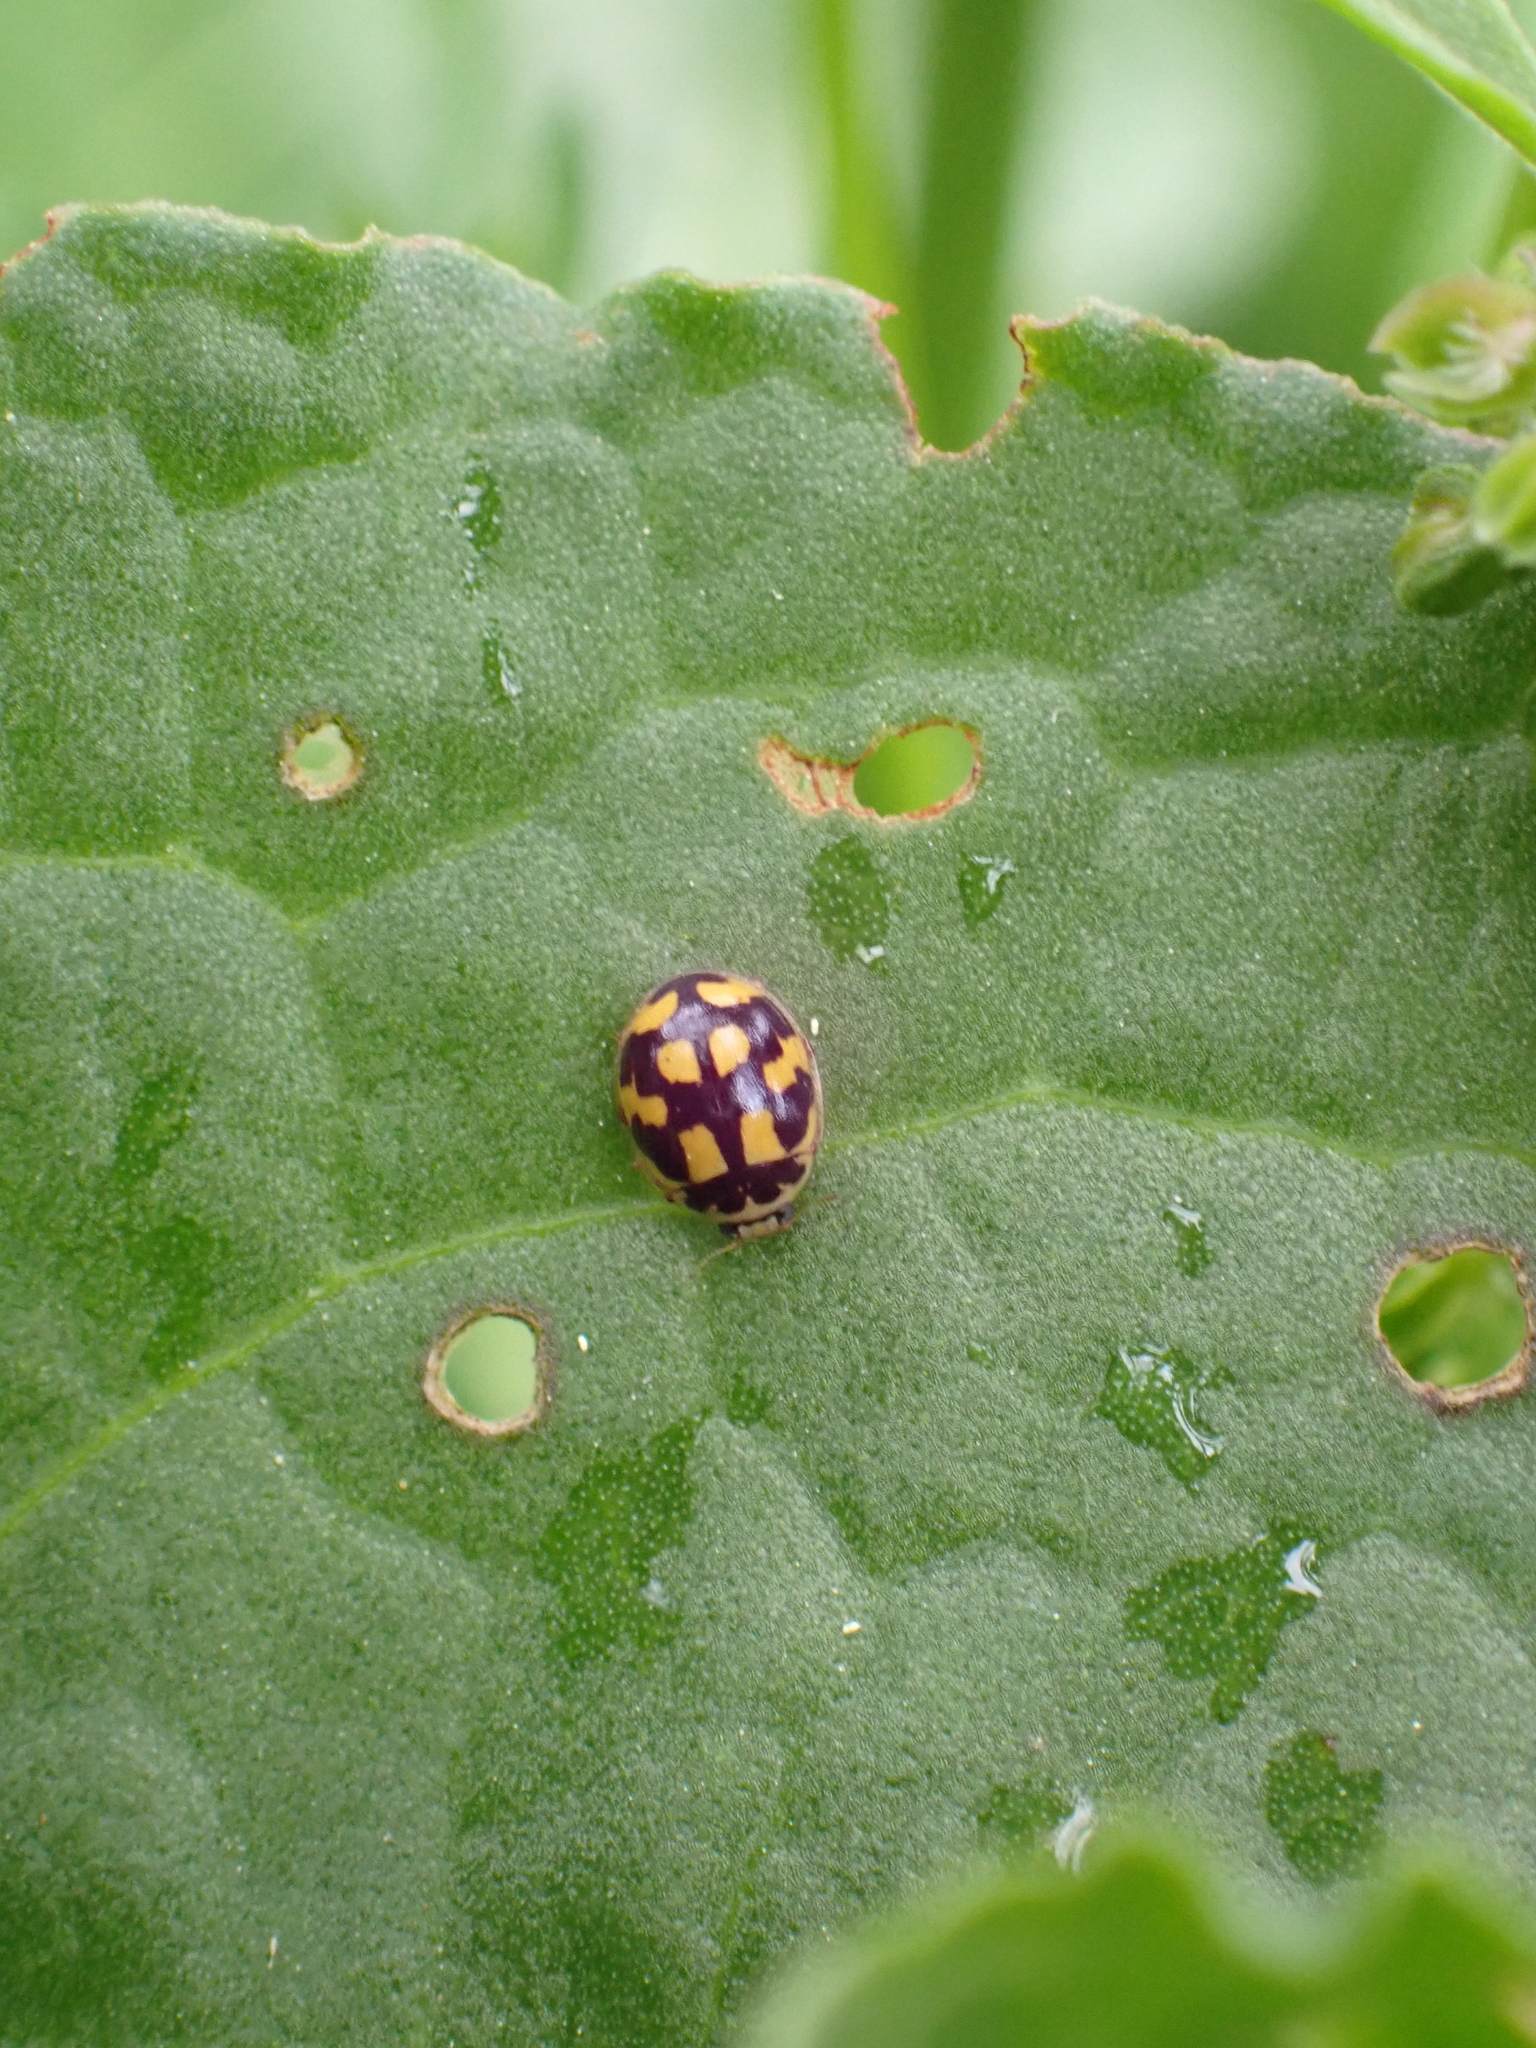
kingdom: Animalia
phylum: Arthropoda
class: Insecta
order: Coleoptera
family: Coccinellidae
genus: Propylaea
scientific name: Propylaea quatuordecimpunctata
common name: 14-spotted ladybird beetle
